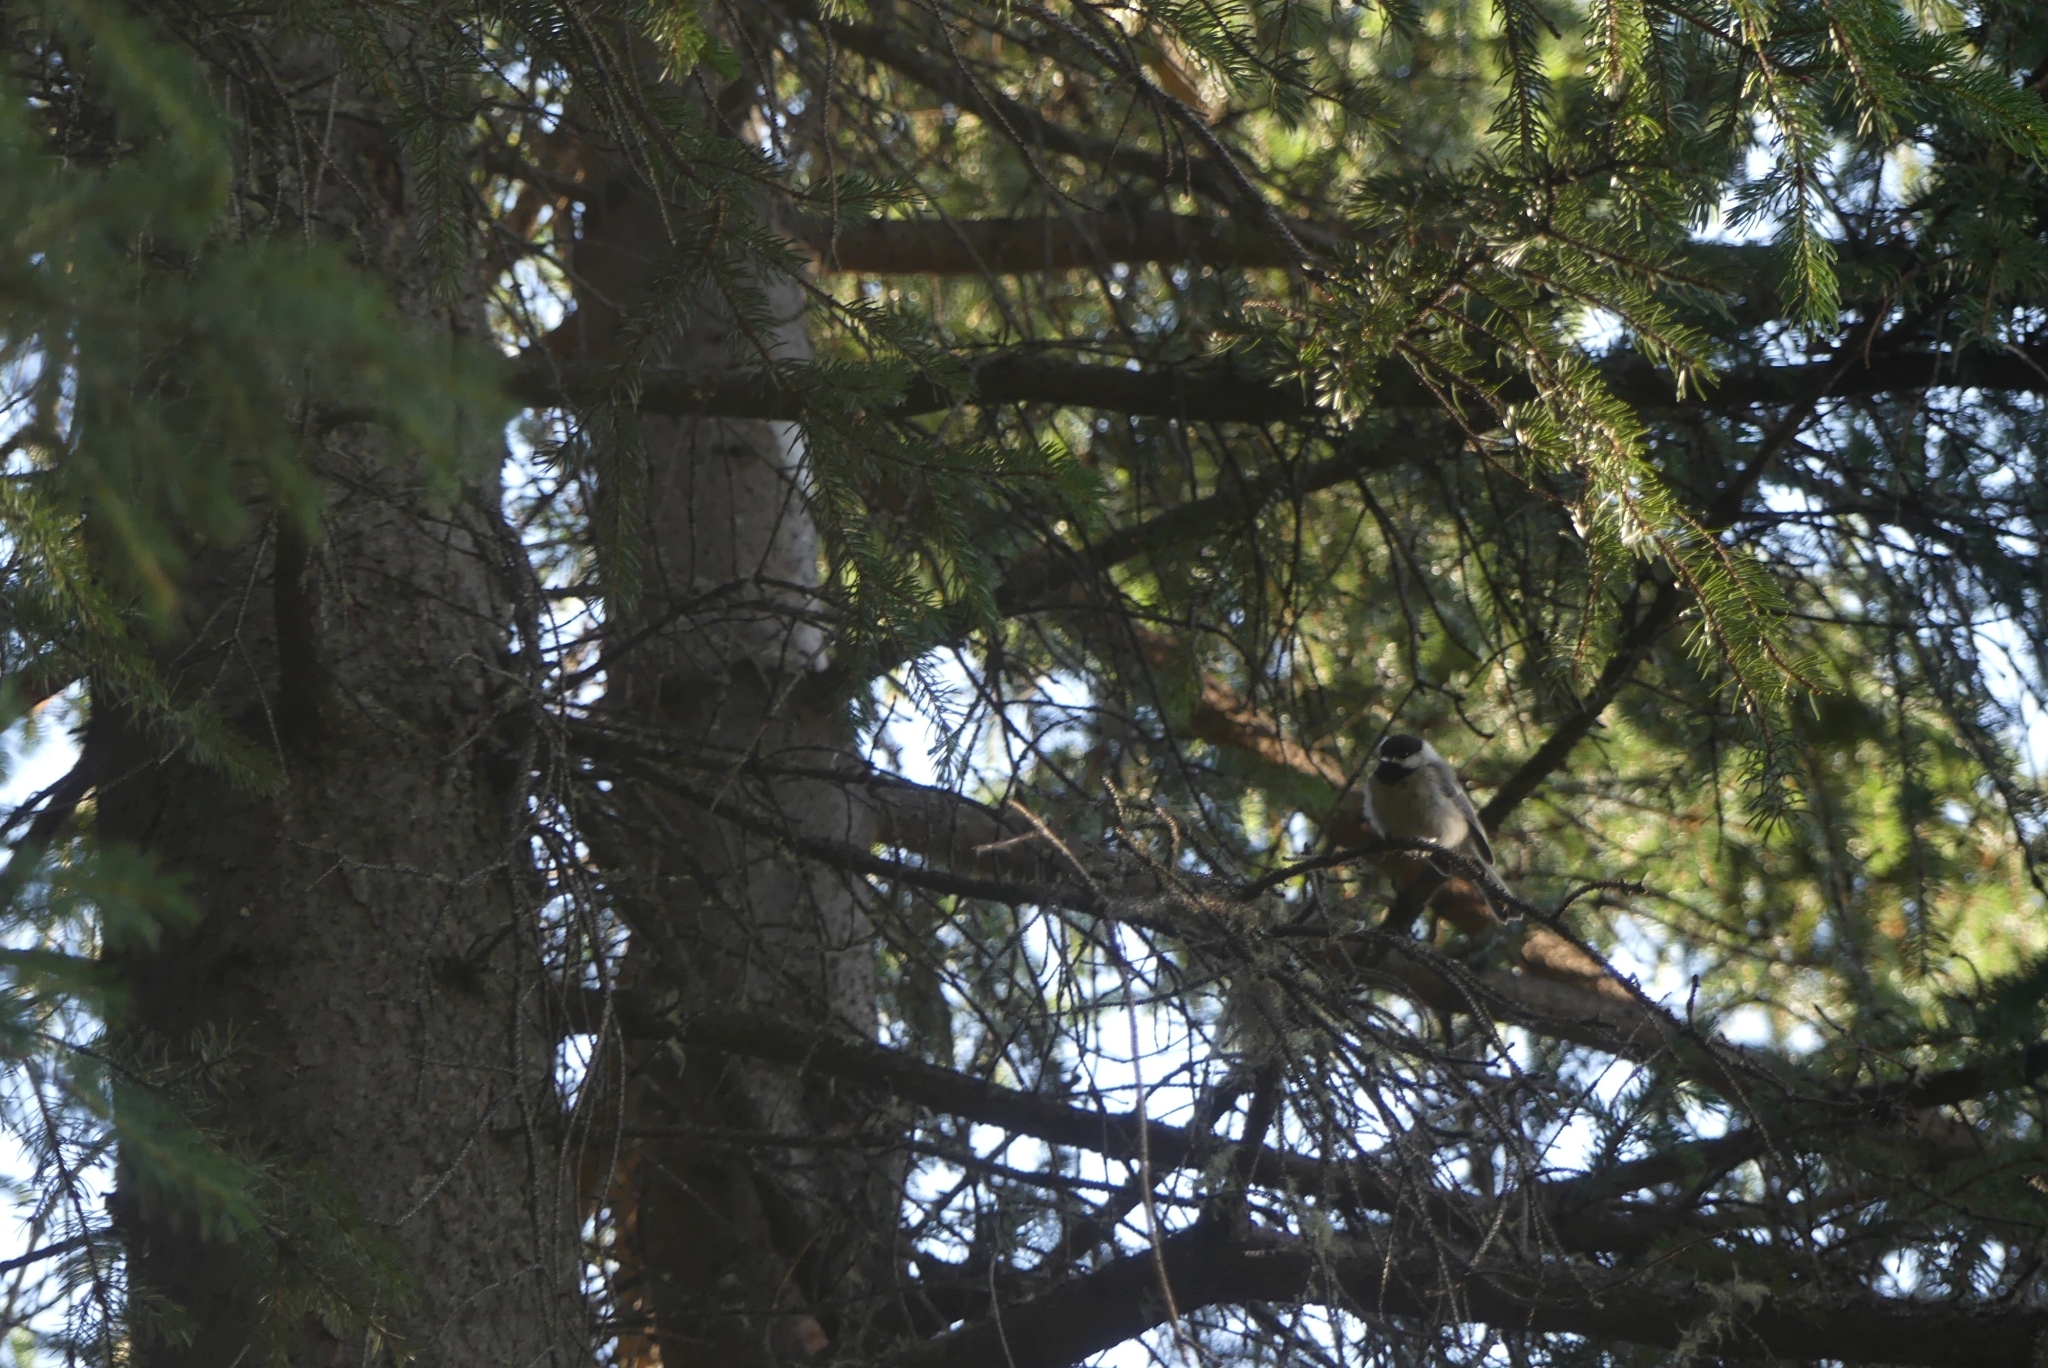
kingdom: Animalia
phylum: Chordata
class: Aves
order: Passeriformes
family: Paridae
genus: Poecile
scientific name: Poecile atricapillus
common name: Black-capped chickadee
